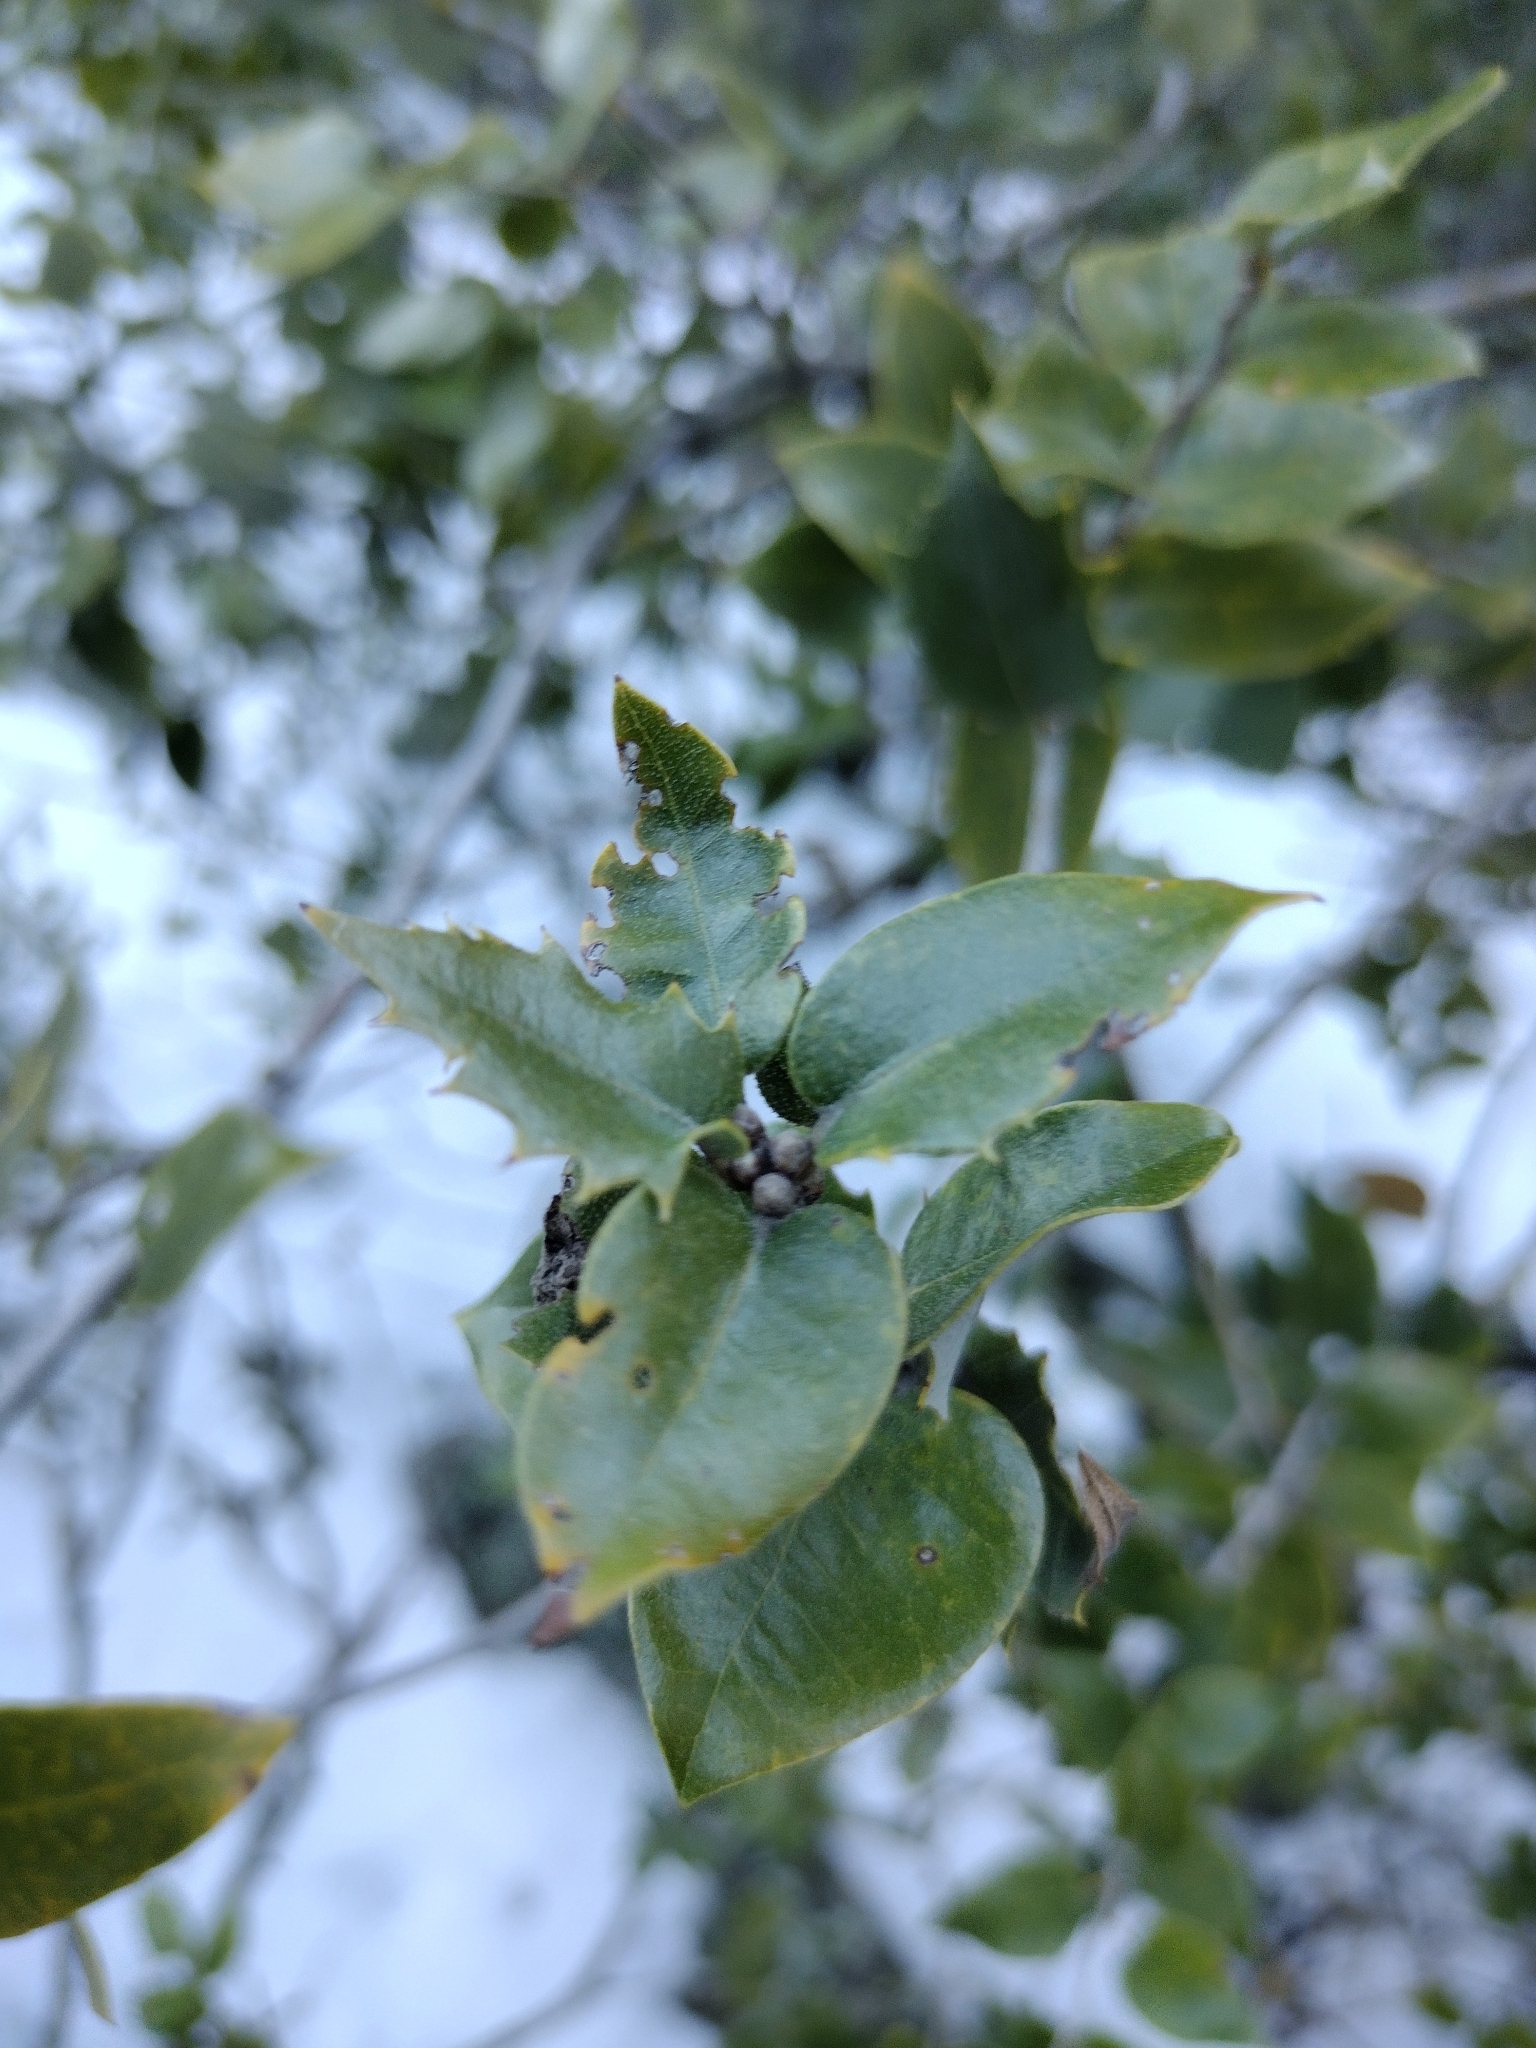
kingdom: Plantae
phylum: Tracheophyta
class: Magnoliopsida
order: Fagales
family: Fagaceae
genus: Quercus
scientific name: Quercus chrysolepis
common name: Canyon live oak
